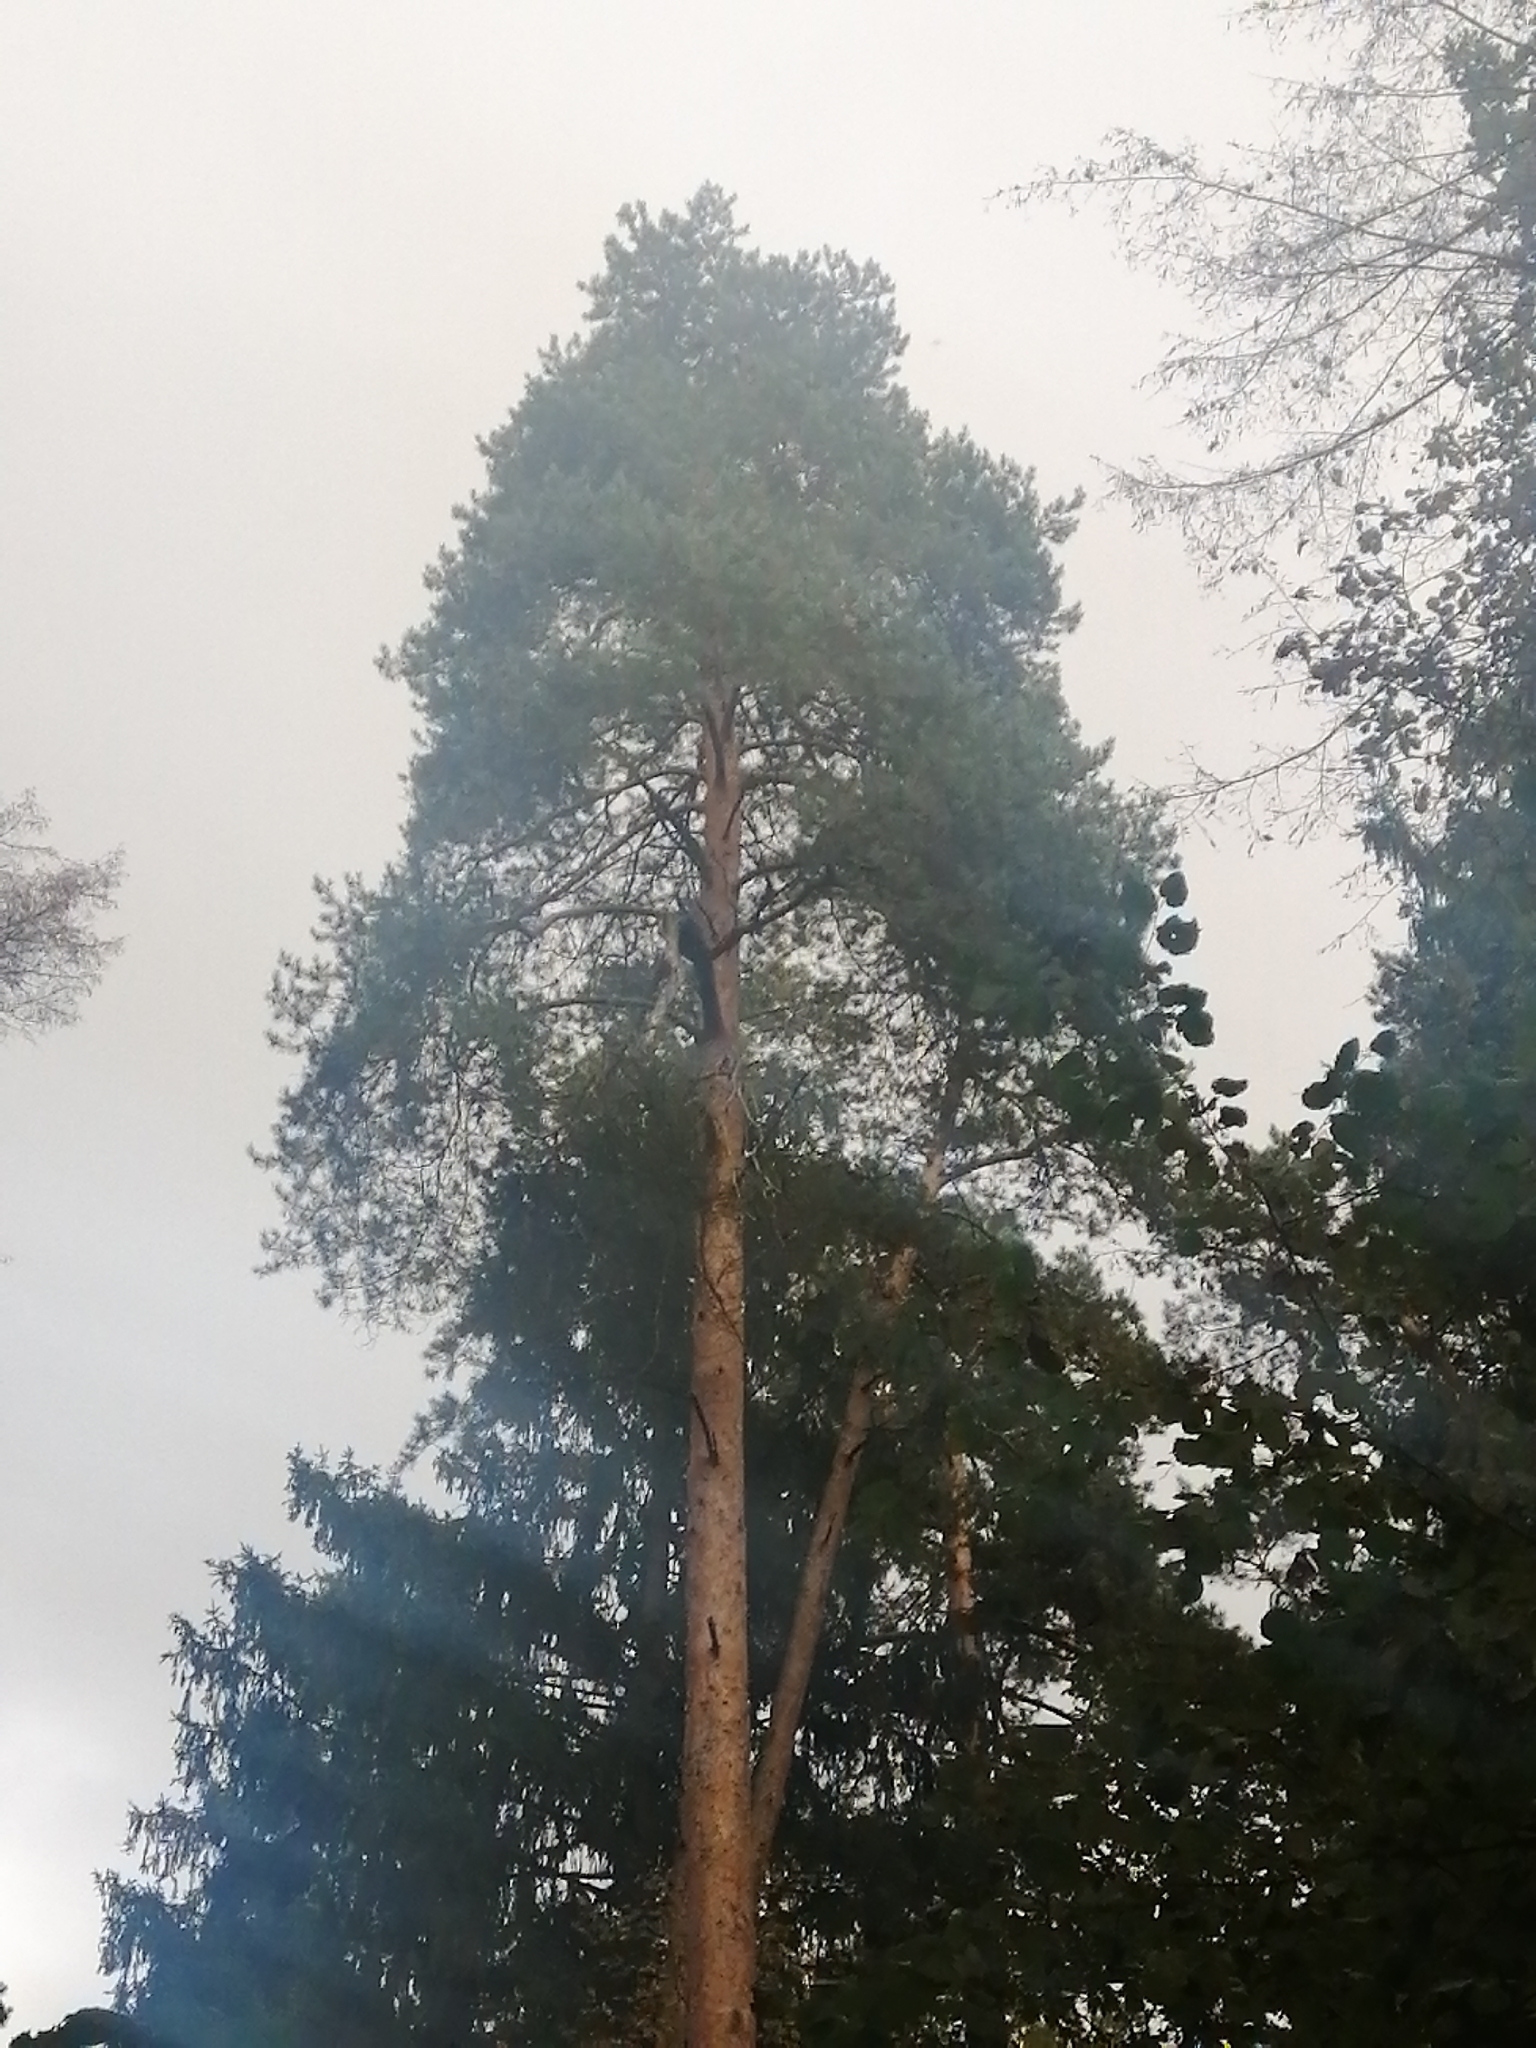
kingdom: Plantae
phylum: Tracheophyta
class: Pinopsida
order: Pinales
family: Pinaceae
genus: Pinus
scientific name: Pinus sylvestris
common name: Scots pine
